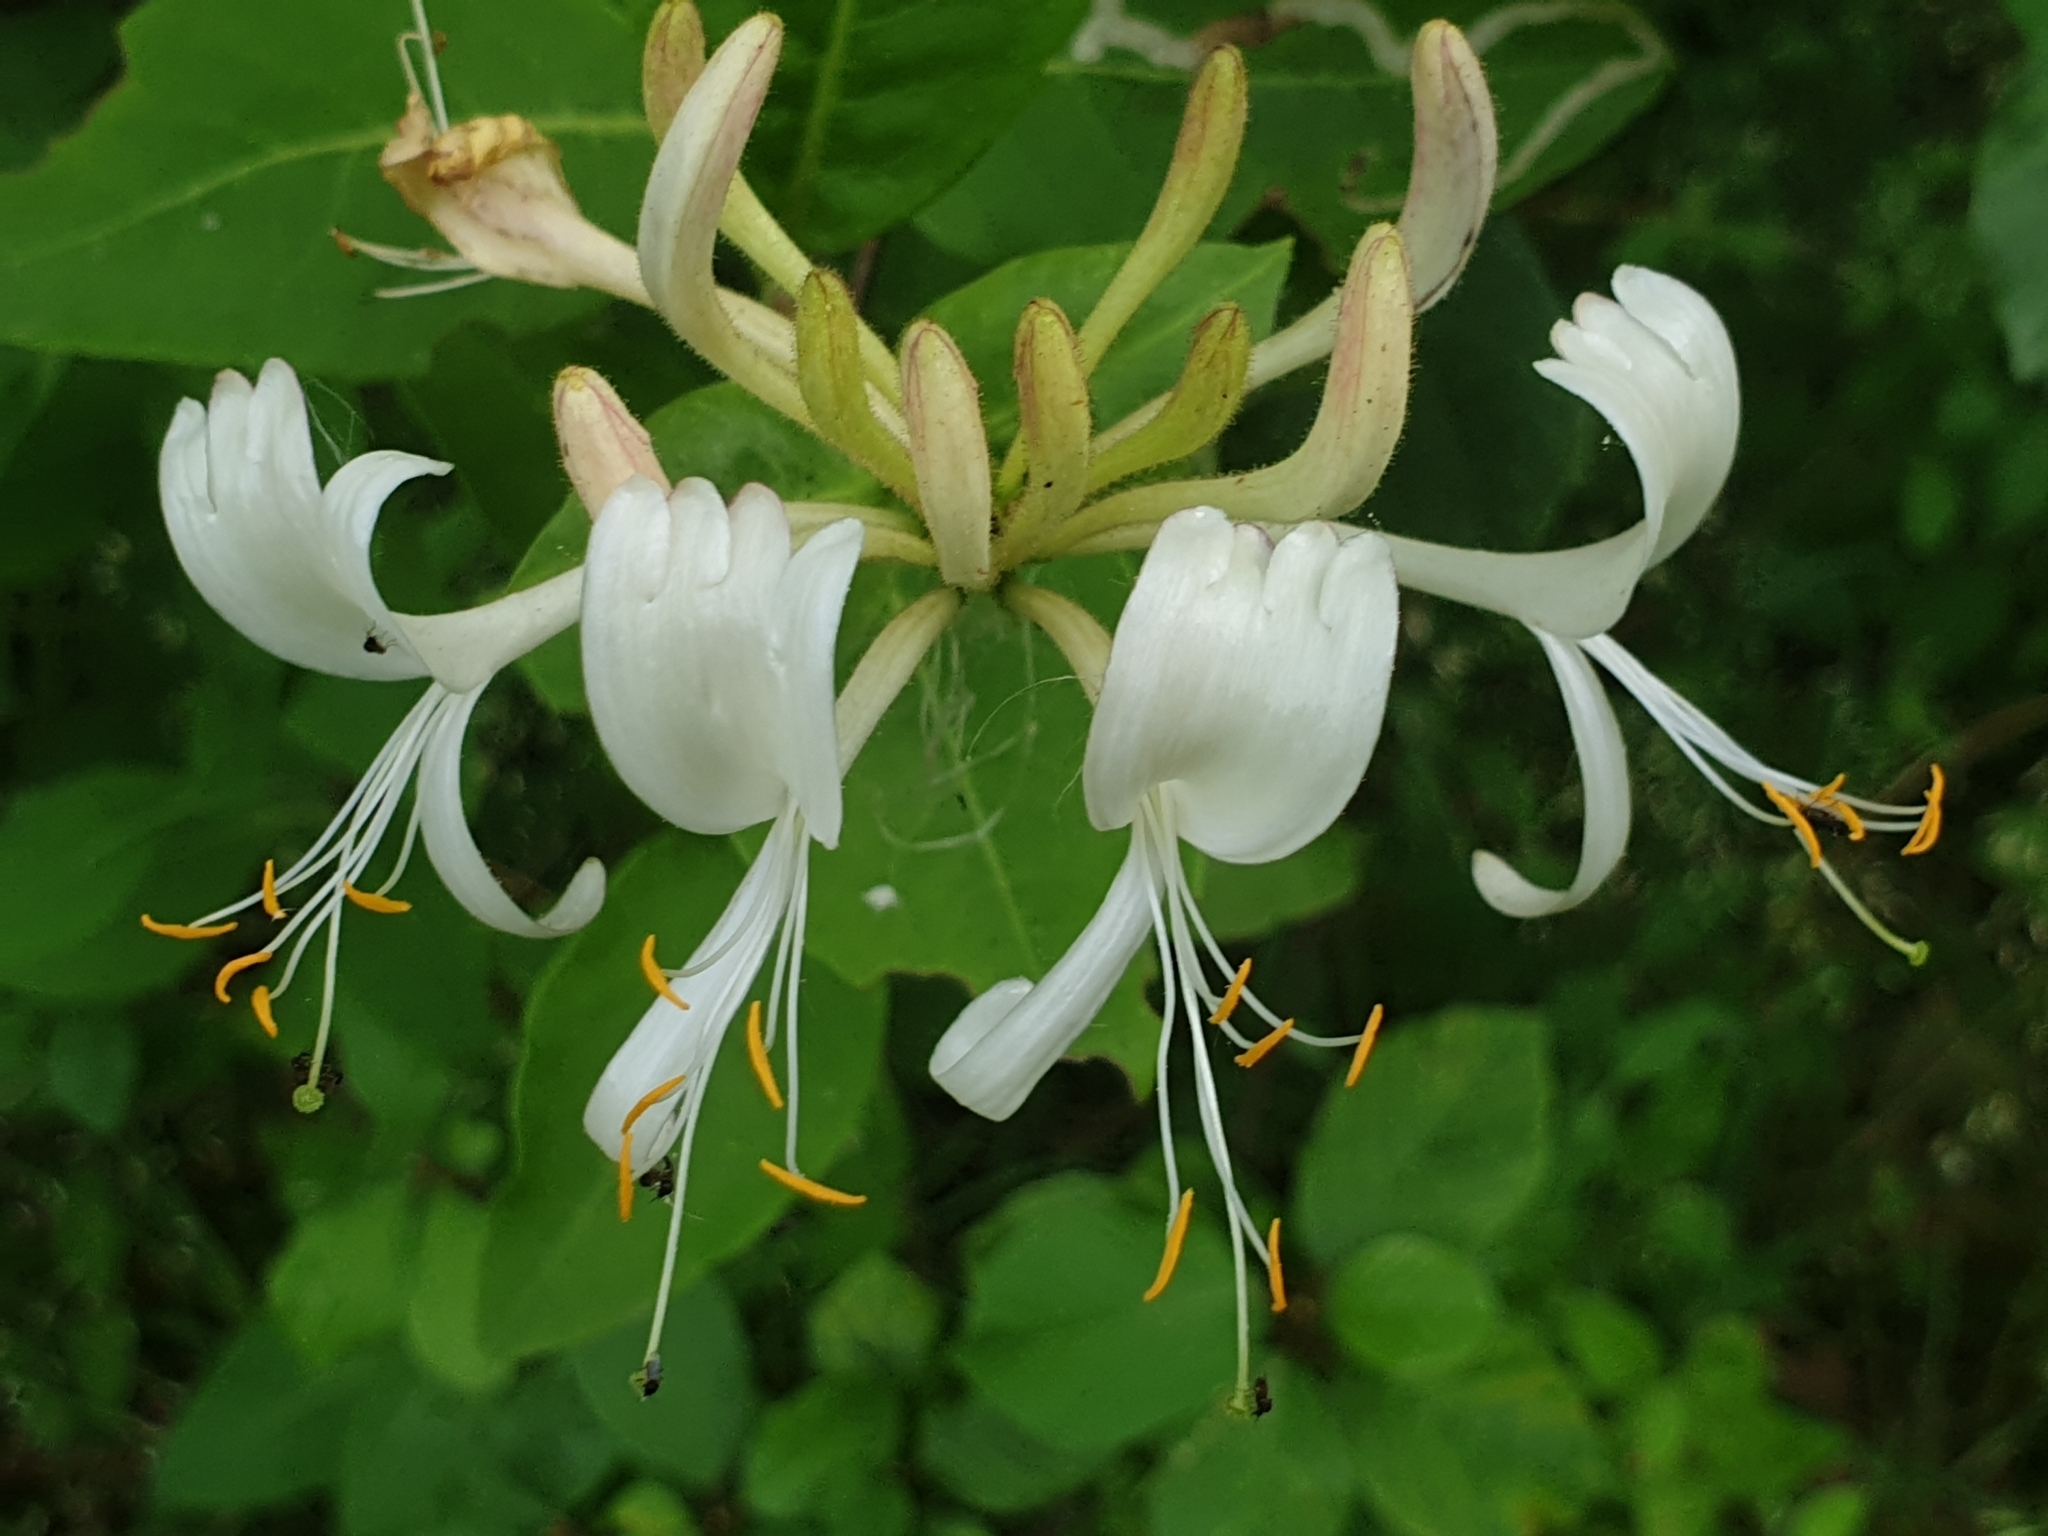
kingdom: Plantae
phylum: Tracheophyta
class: Magnoliopsida
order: Dipsacales
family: Caprifoliaceae
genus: Lonicera
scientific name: Lonicera periclymenum
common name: European honeysuckle
